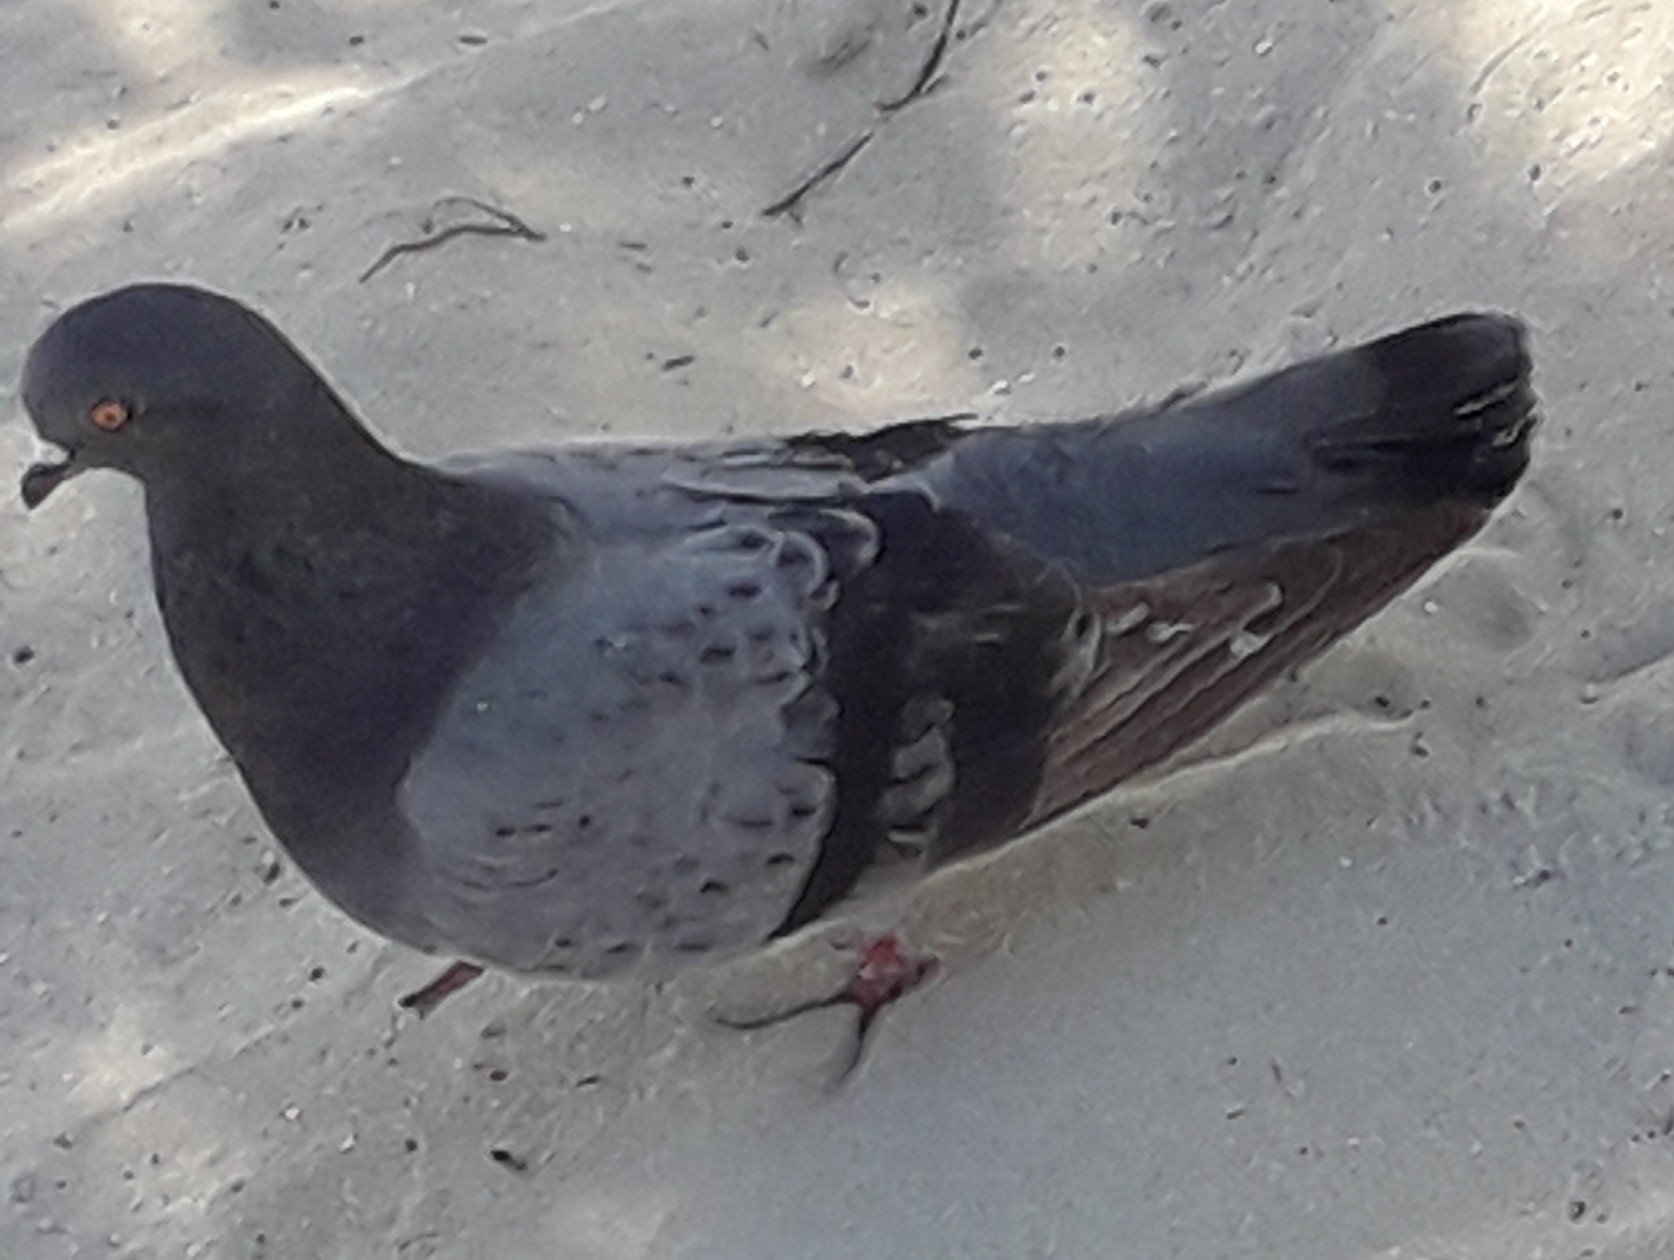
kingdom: Animalia
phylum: Chordata
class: Aves
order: Columbiformes
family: Columbidae
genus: Columba
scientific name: Columba livia
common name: Rock pigeon
